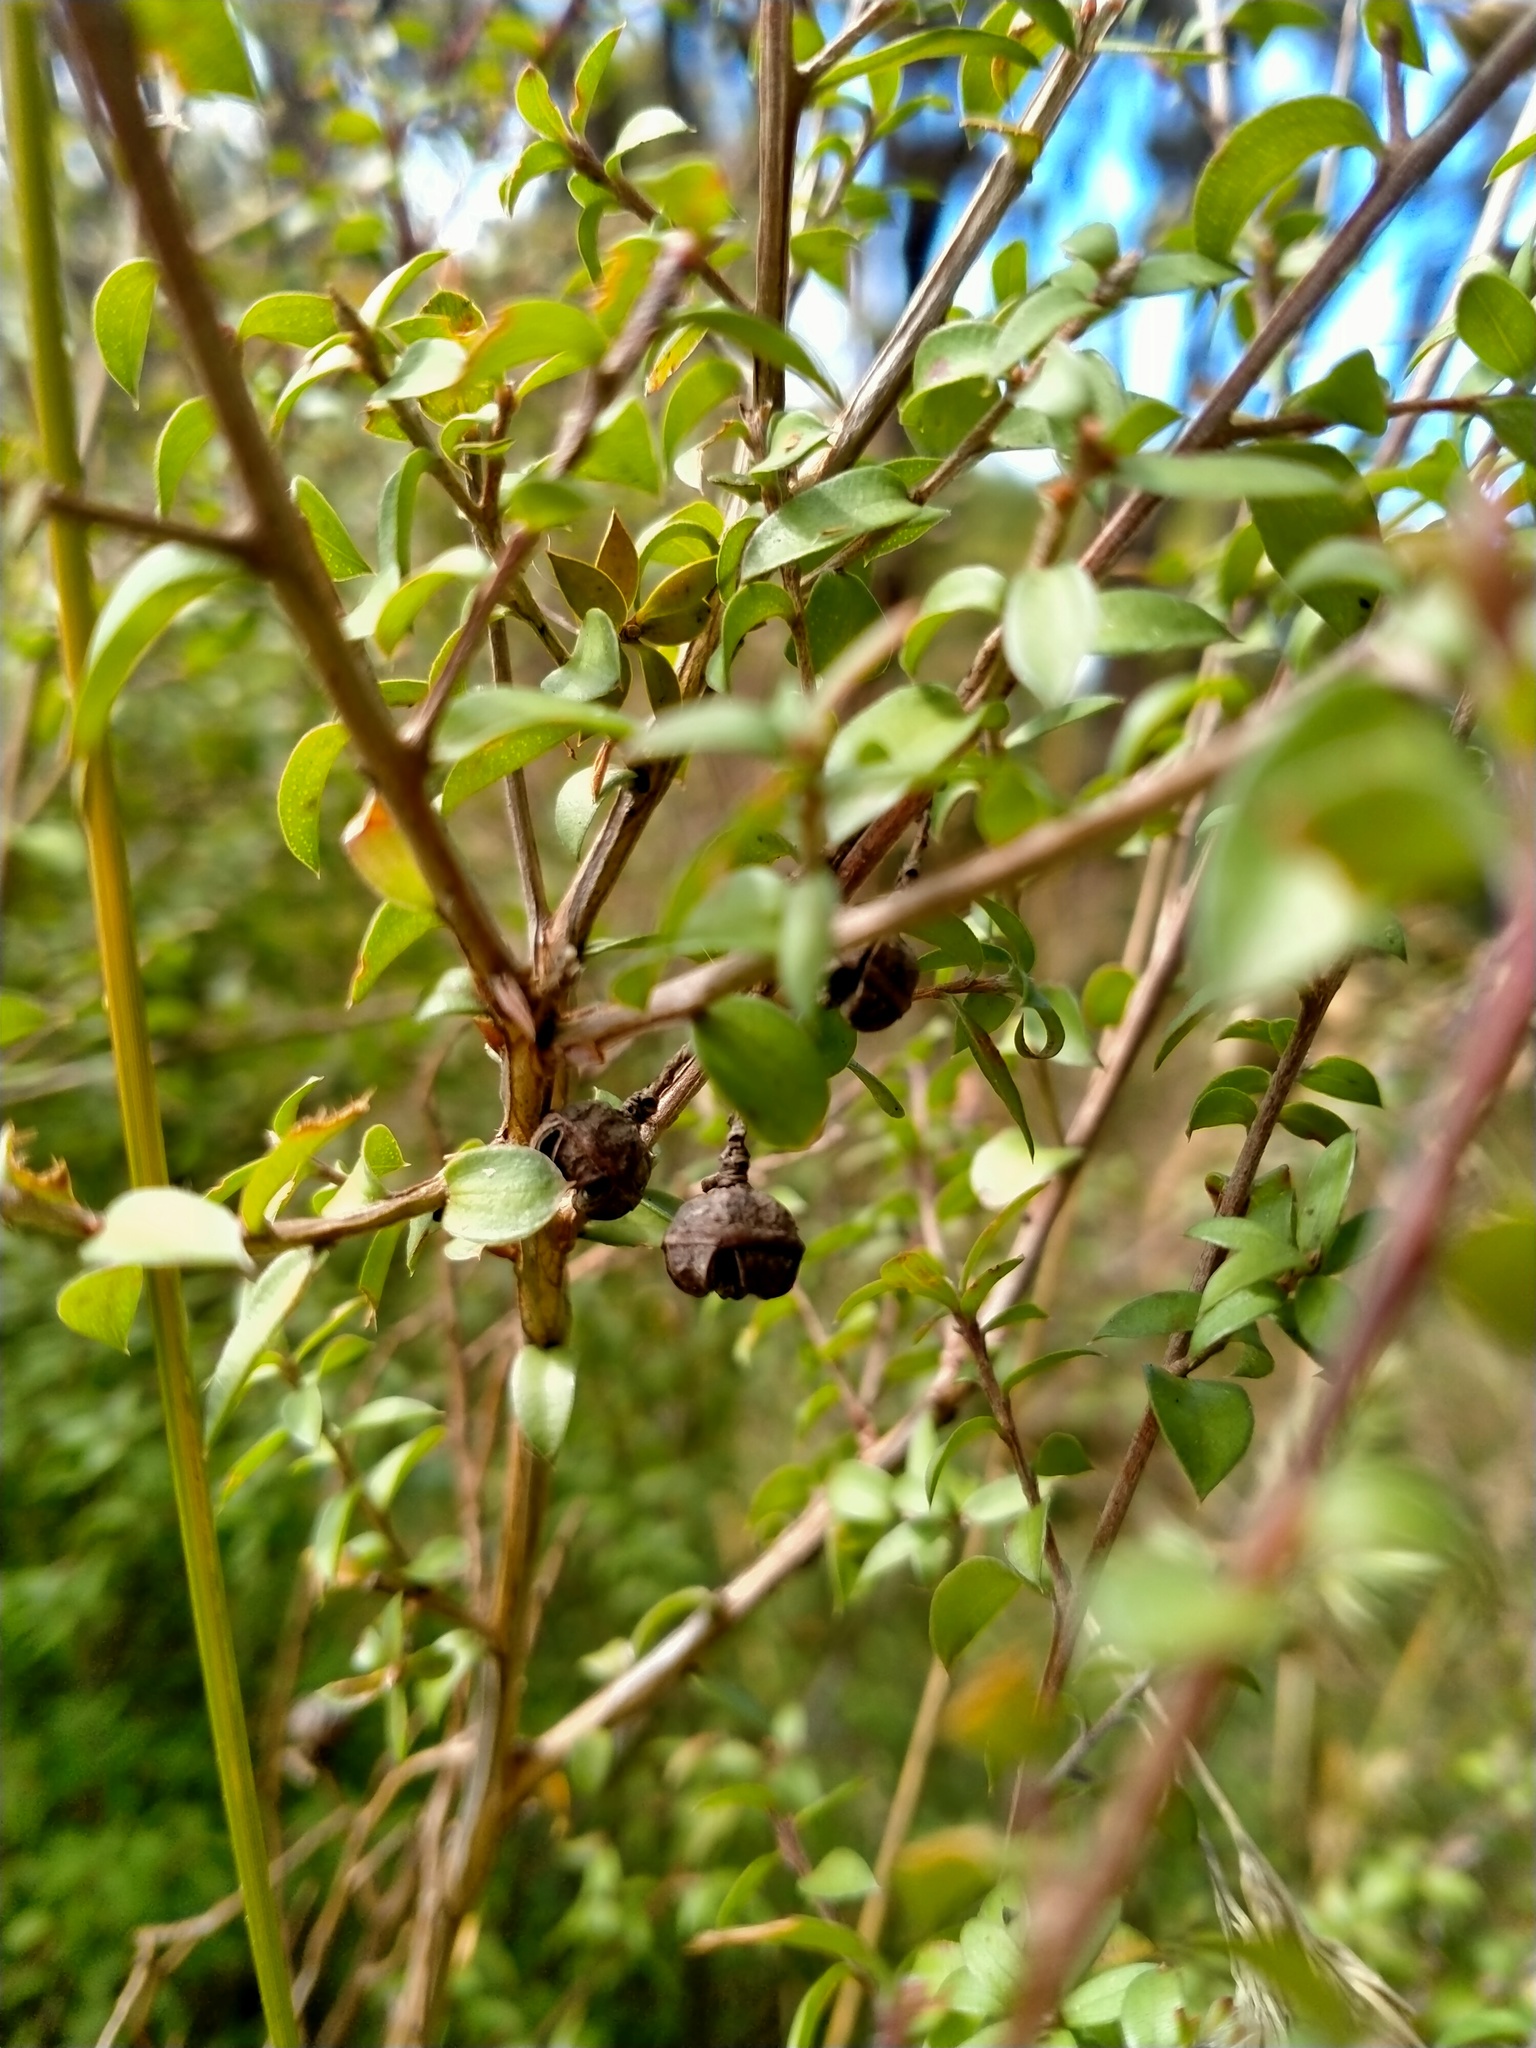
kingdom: Plantae
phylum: Tracheophyta
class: Magnoliopsida
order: Myrtales
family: Myrtaceae
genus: Leptospermum
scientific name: Leptospermum scoparium
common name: Broom tea-tree
